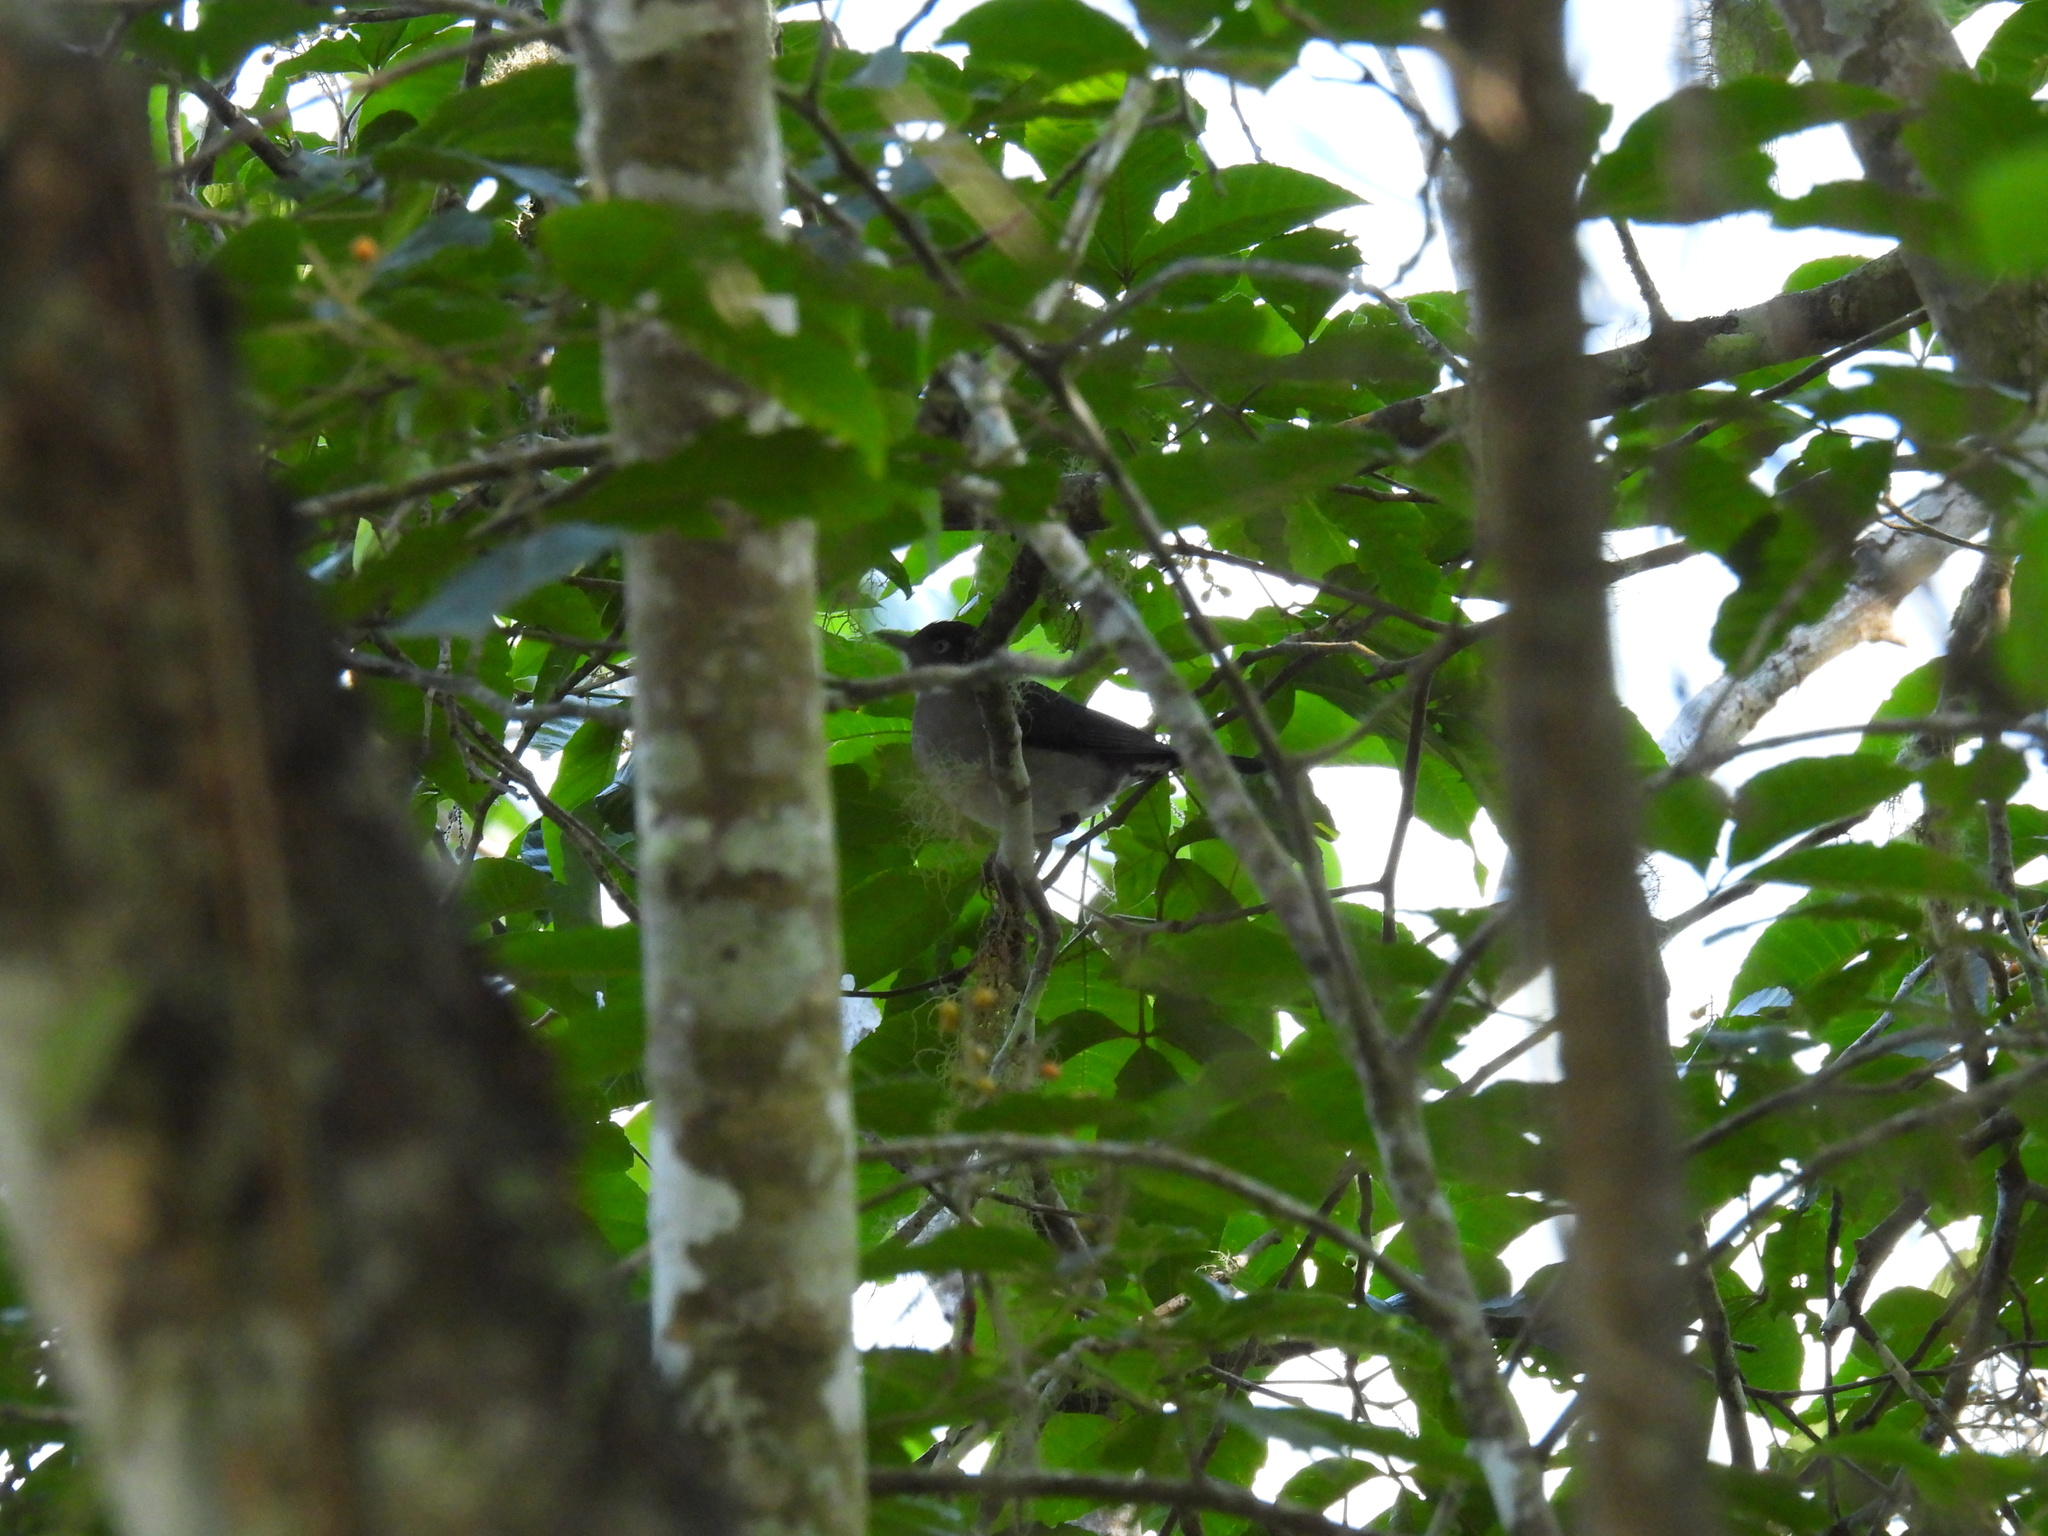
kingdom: Animalia
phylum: Chordata
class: Aves
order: Passeriformes
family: Turdidae
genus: Turdus
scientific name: Turdus jamaicensis
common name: White-eyed thrush
